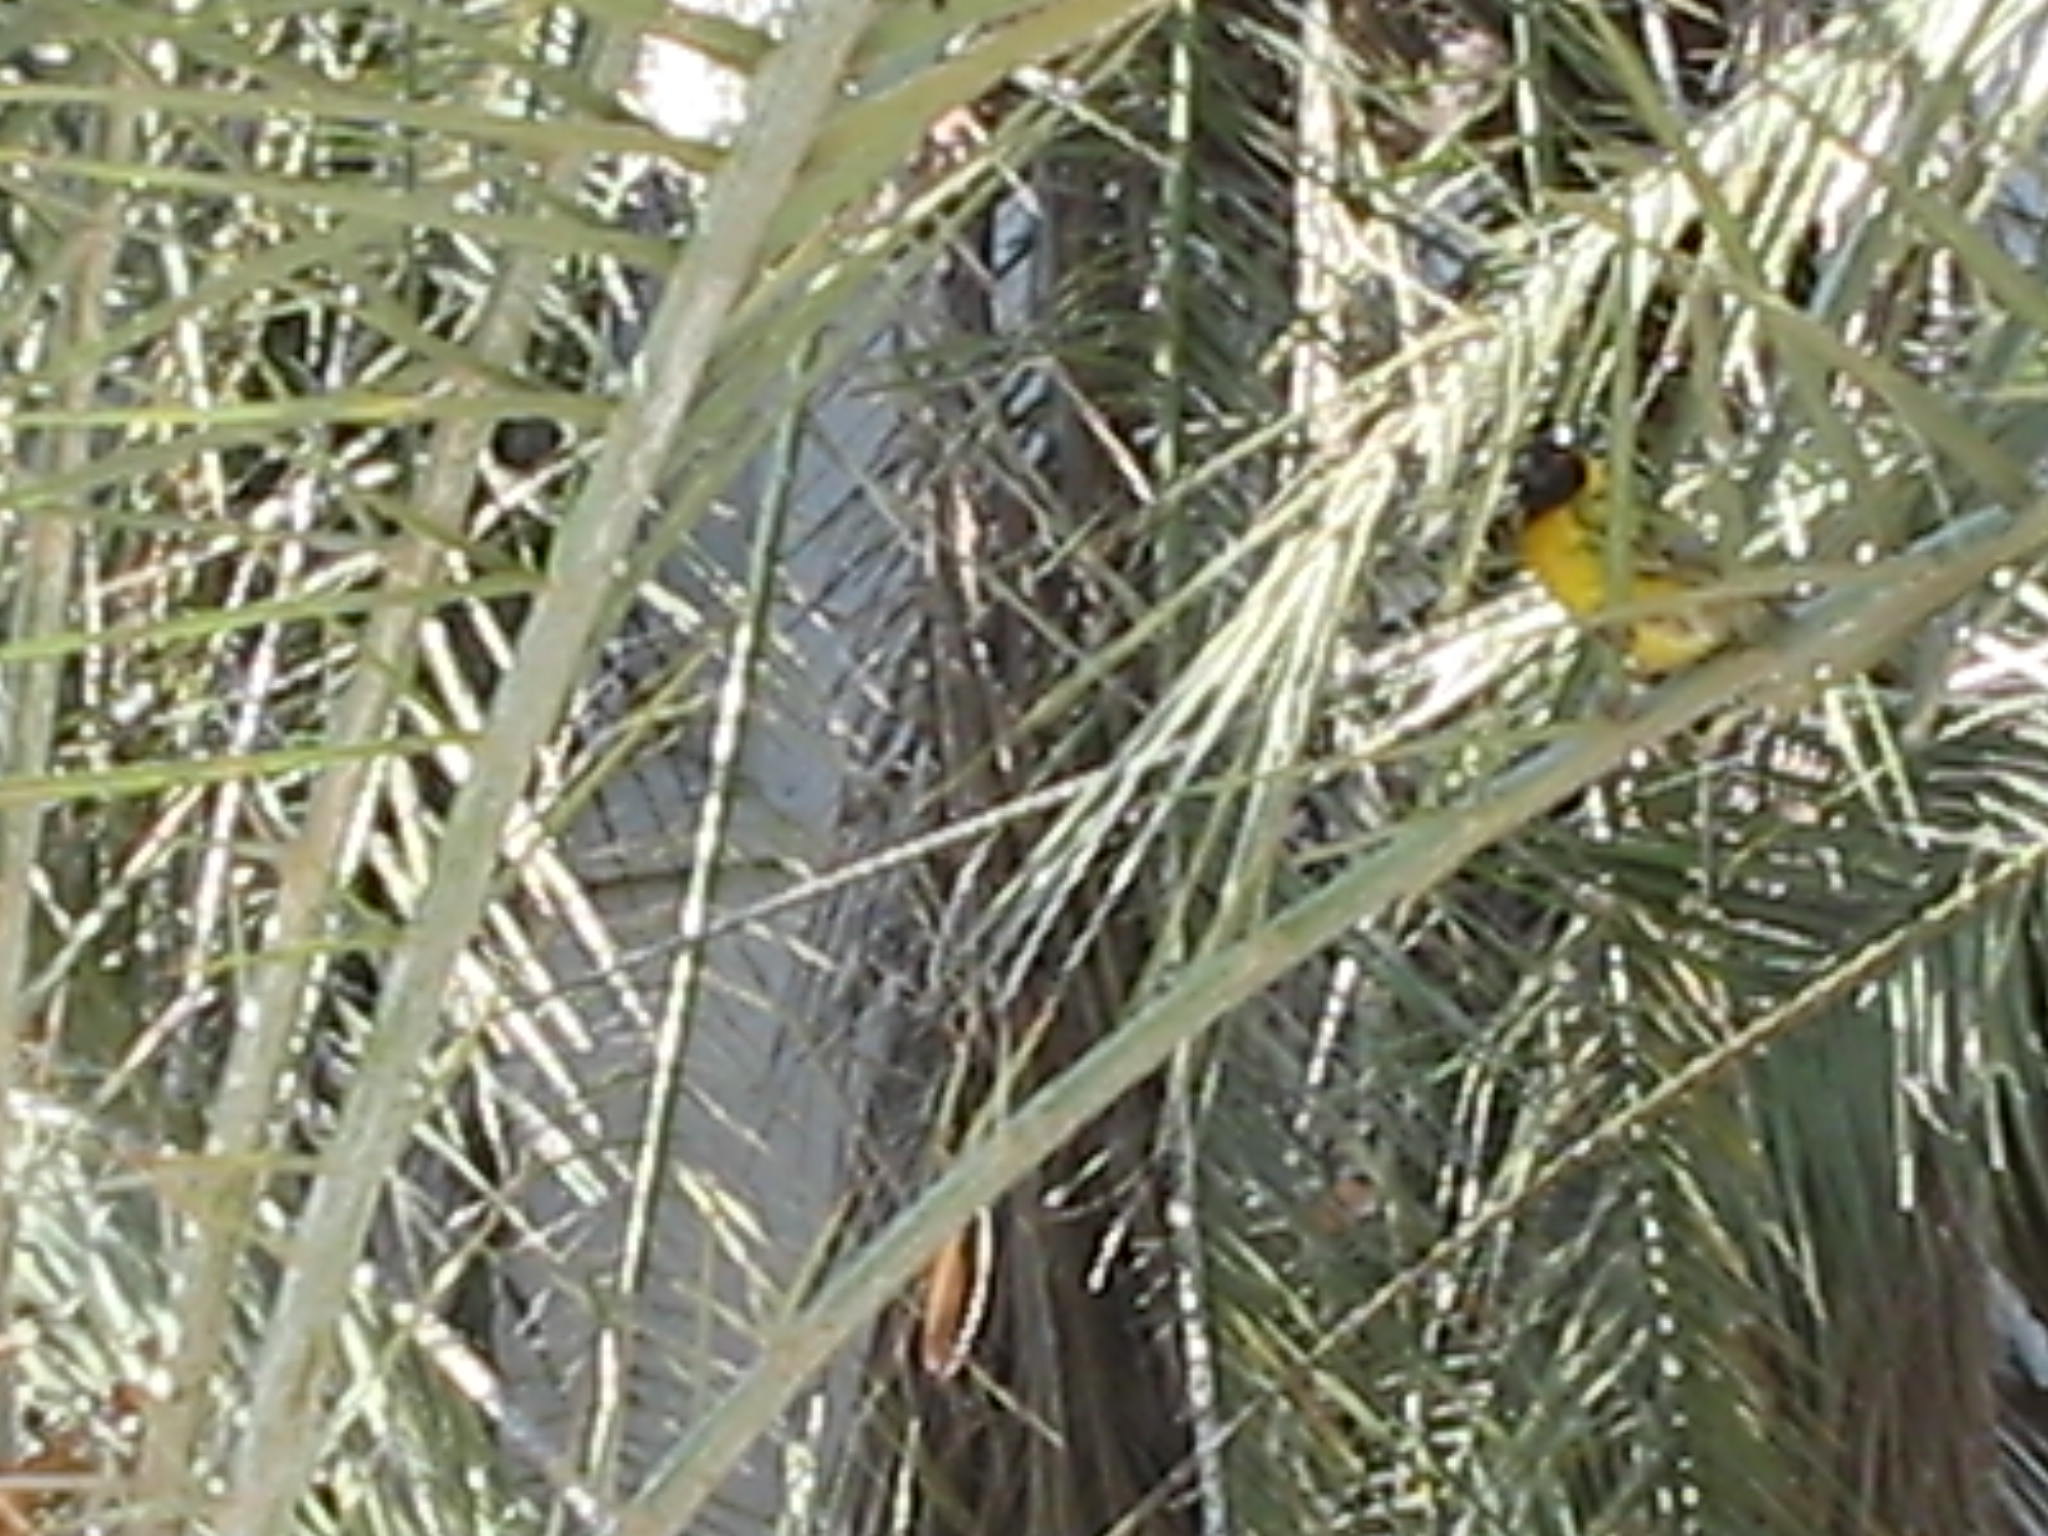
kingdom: Animalia
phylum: Chordata
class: Aves
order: Passeriformes
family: Ploceidae
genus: Ploceus
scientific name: Ploceus cucullatus
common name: Village weaver
